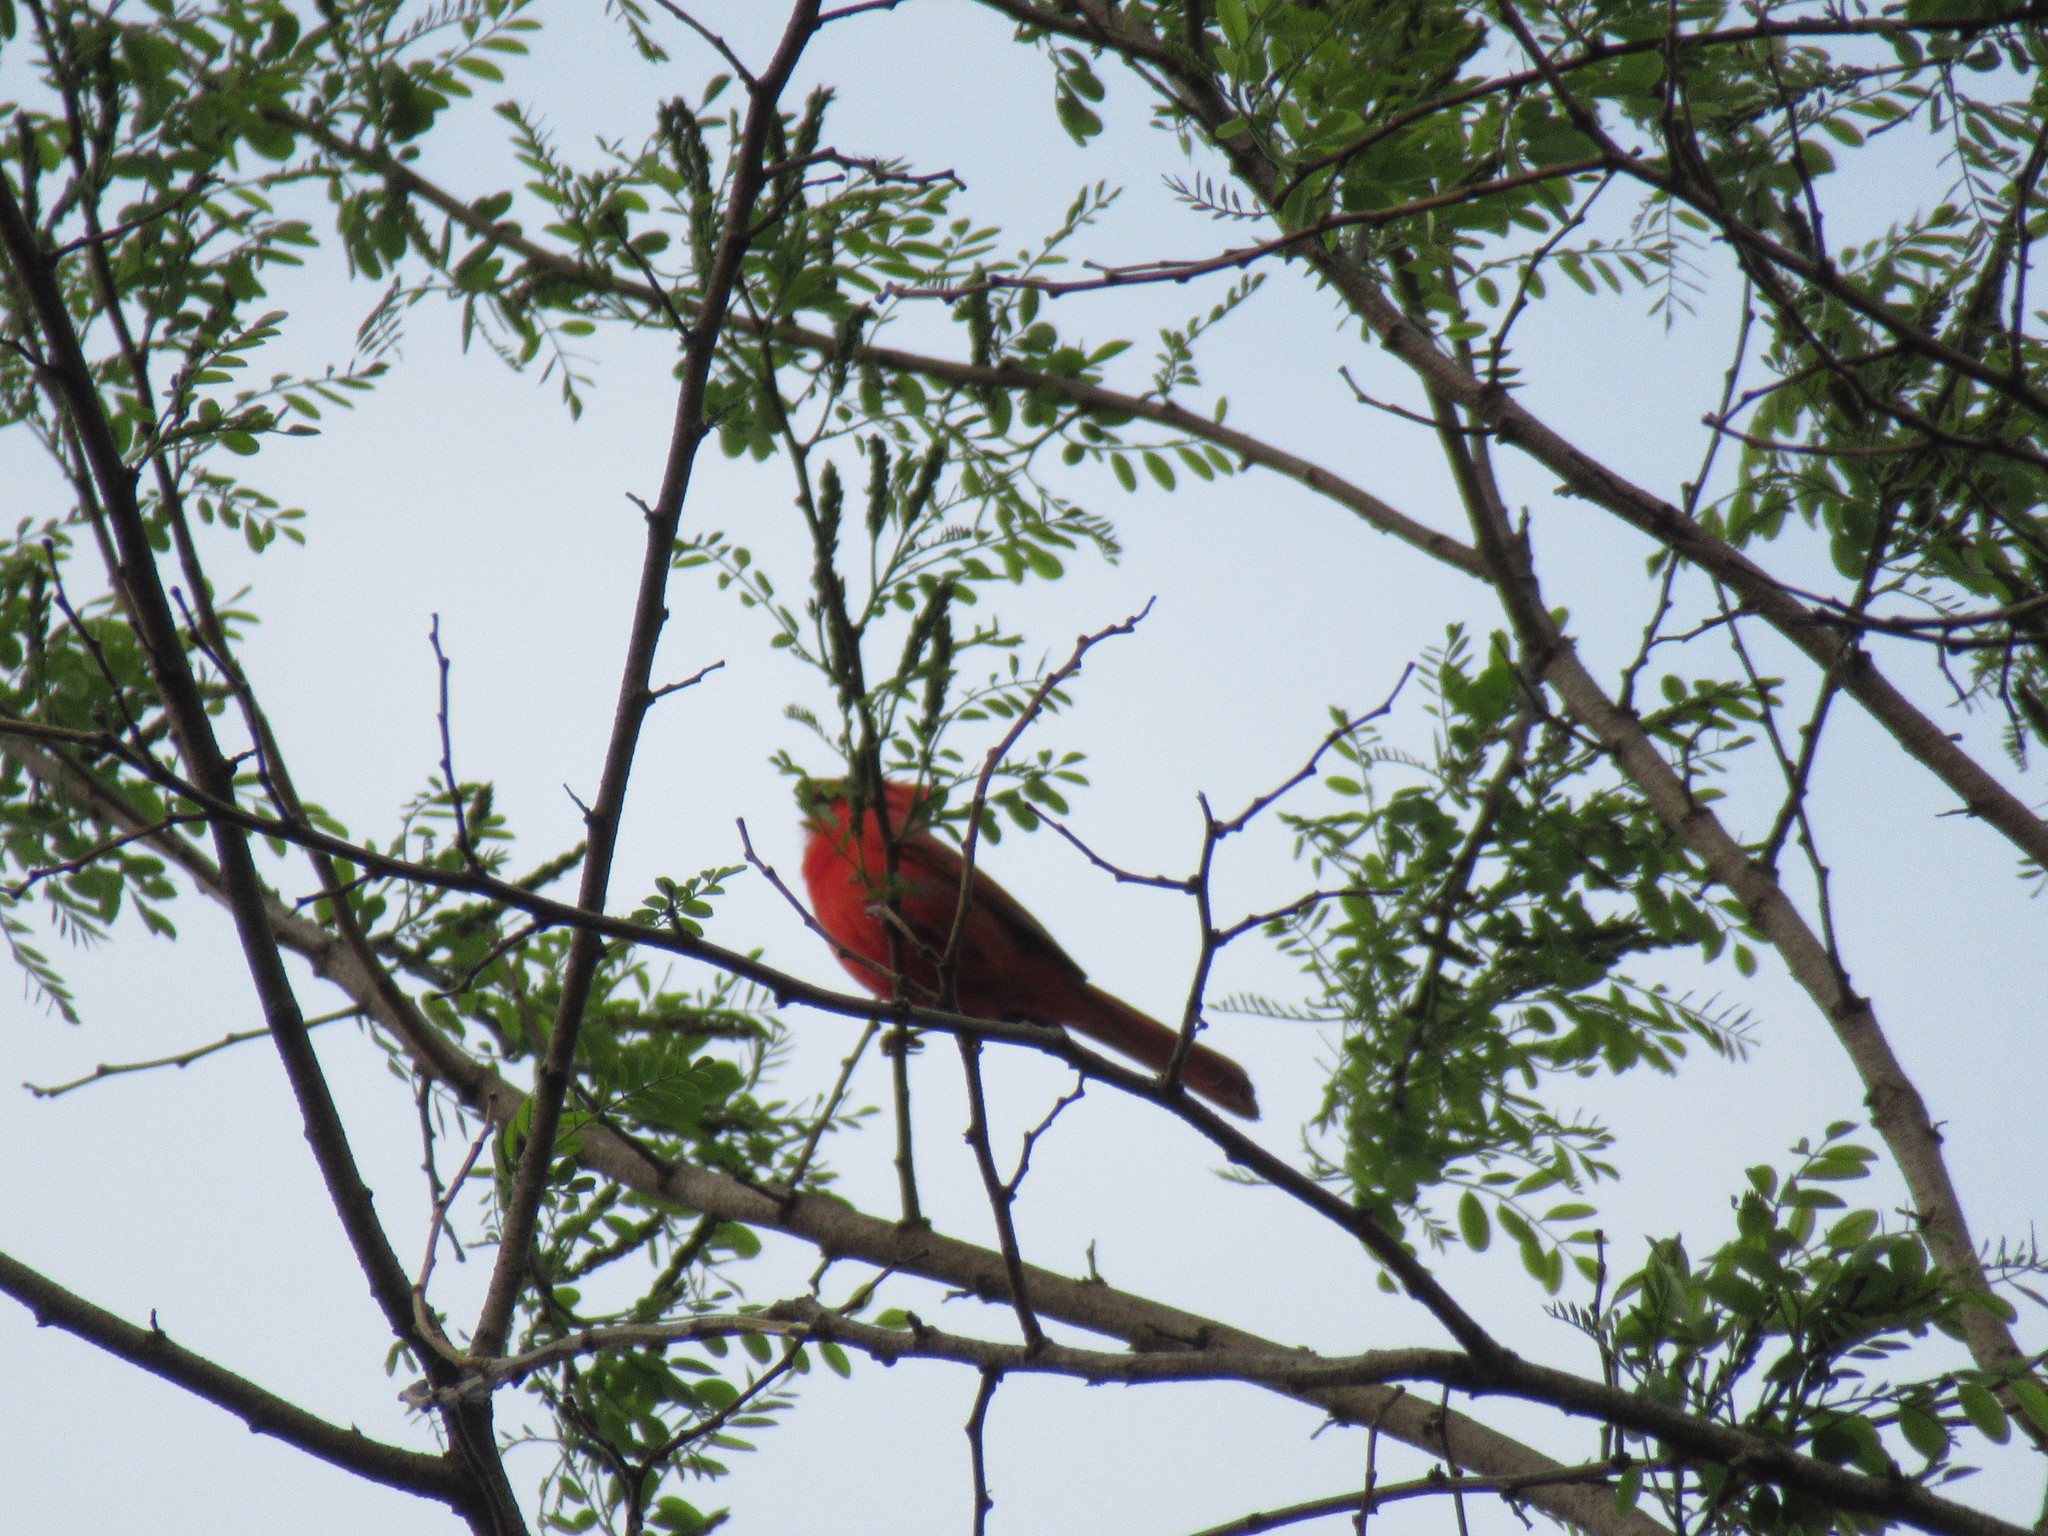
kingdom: Animalia
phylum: Chordata
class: Aves
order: Passeriformes
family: Cardinalidae
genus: Cardinalis
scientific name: Cardinalis cardinalis
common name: Northern cardinal
